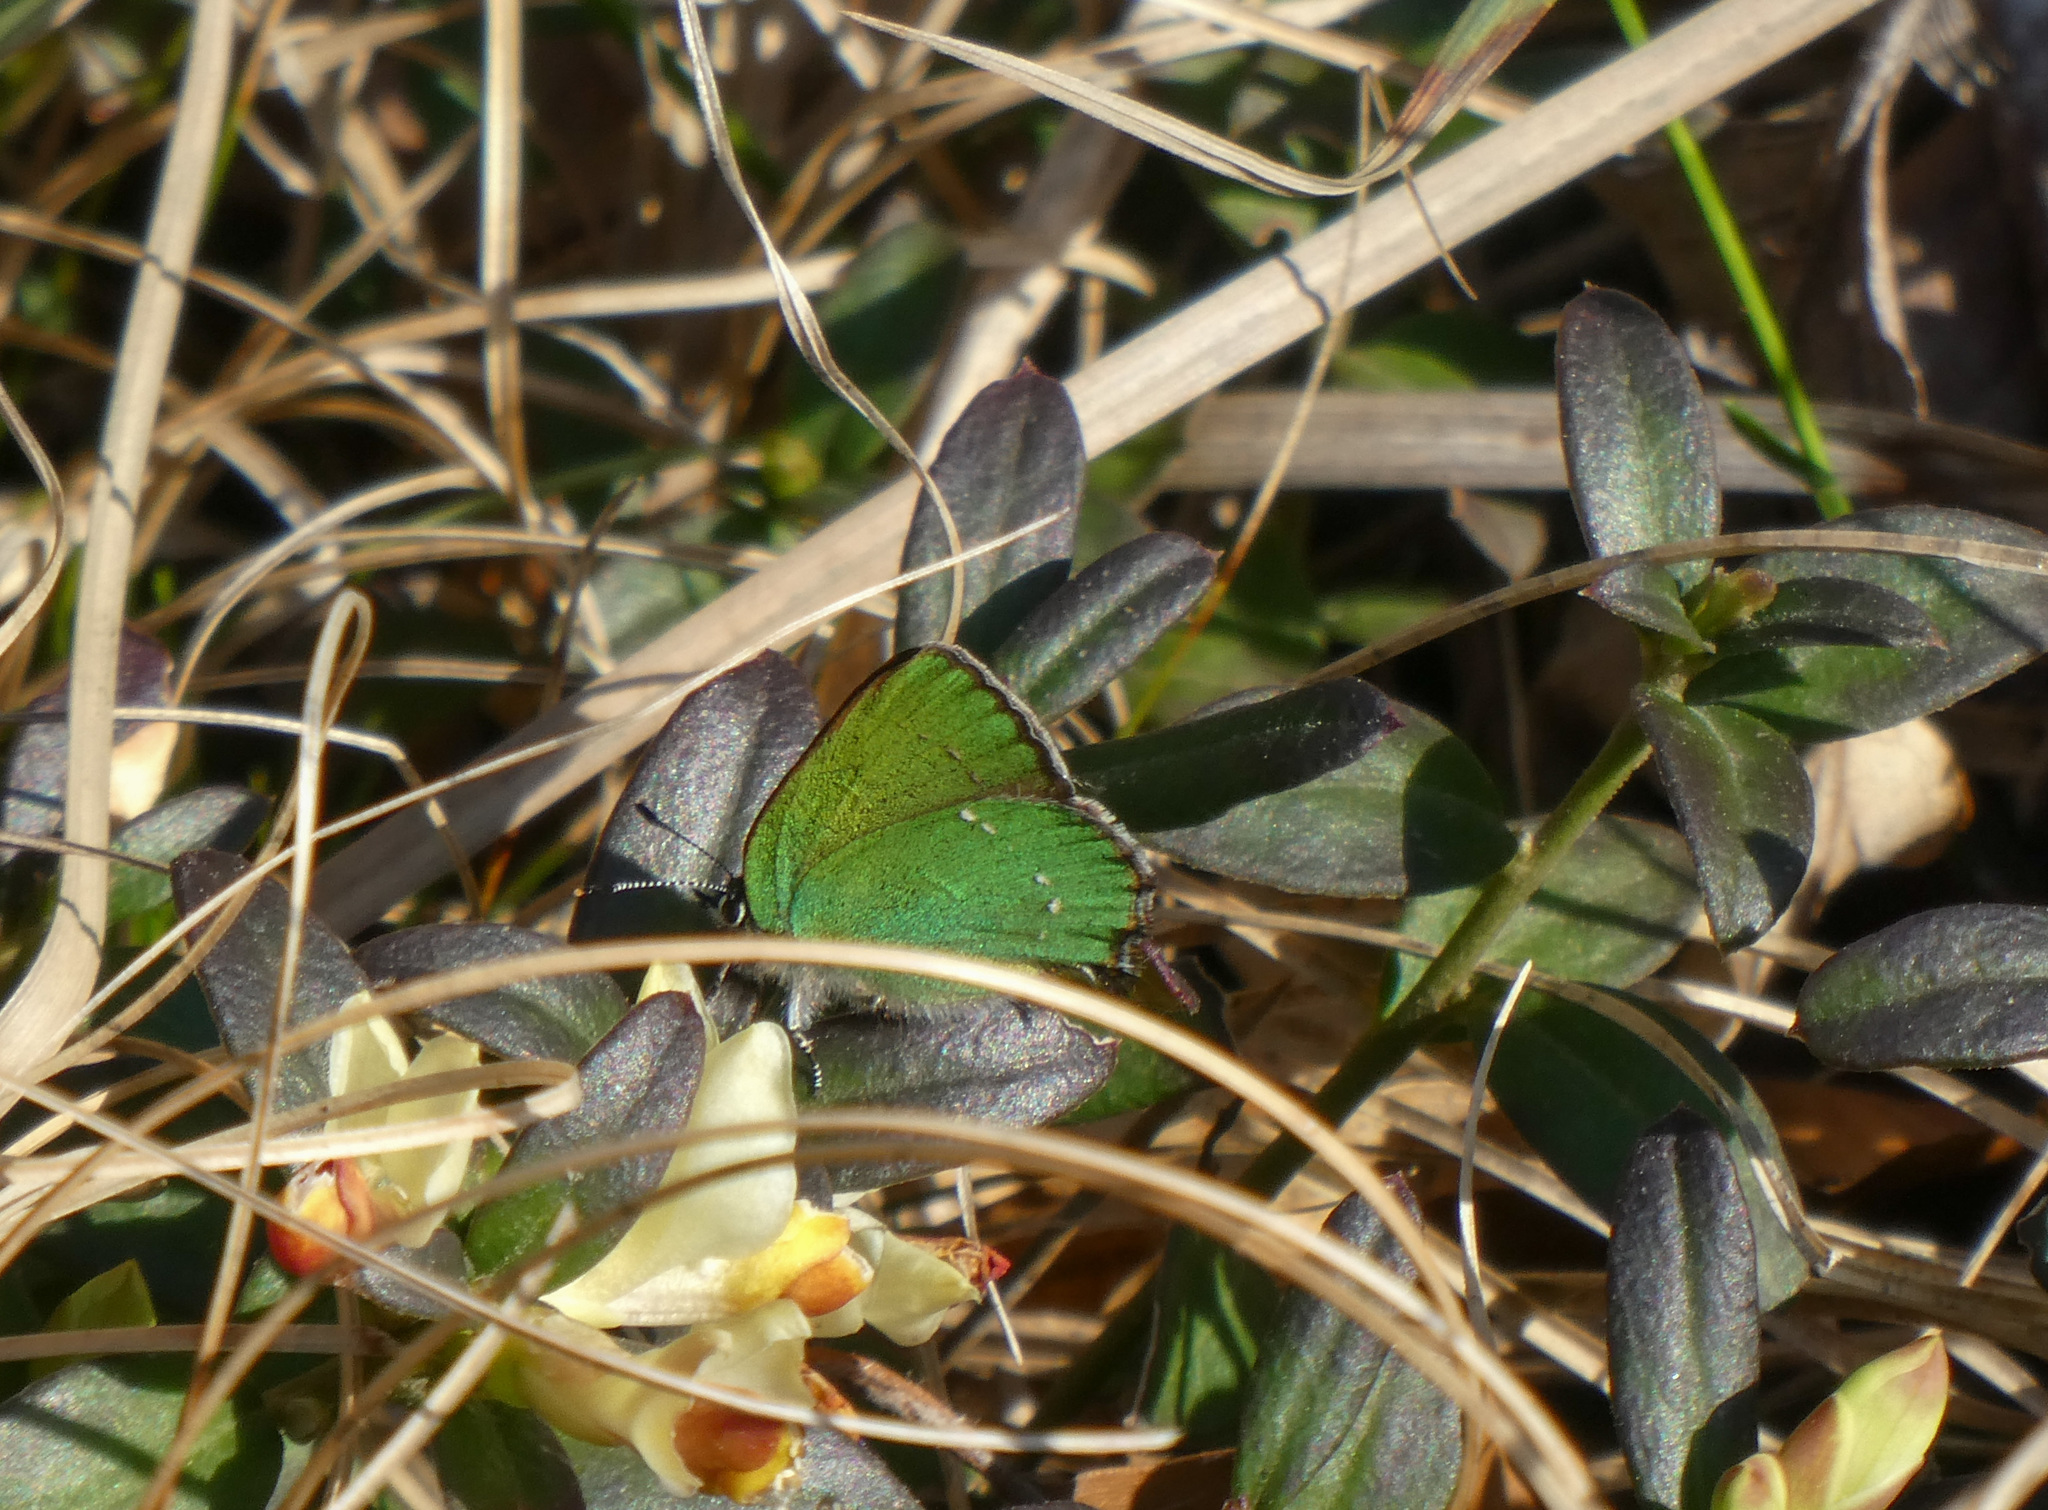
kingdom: Animalia
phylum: Arthropoda
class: Insecta
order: Lepidoptera
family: Lycaenidae
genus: Callophrys
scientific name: Callophrys rubi
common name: Green hairstreak
